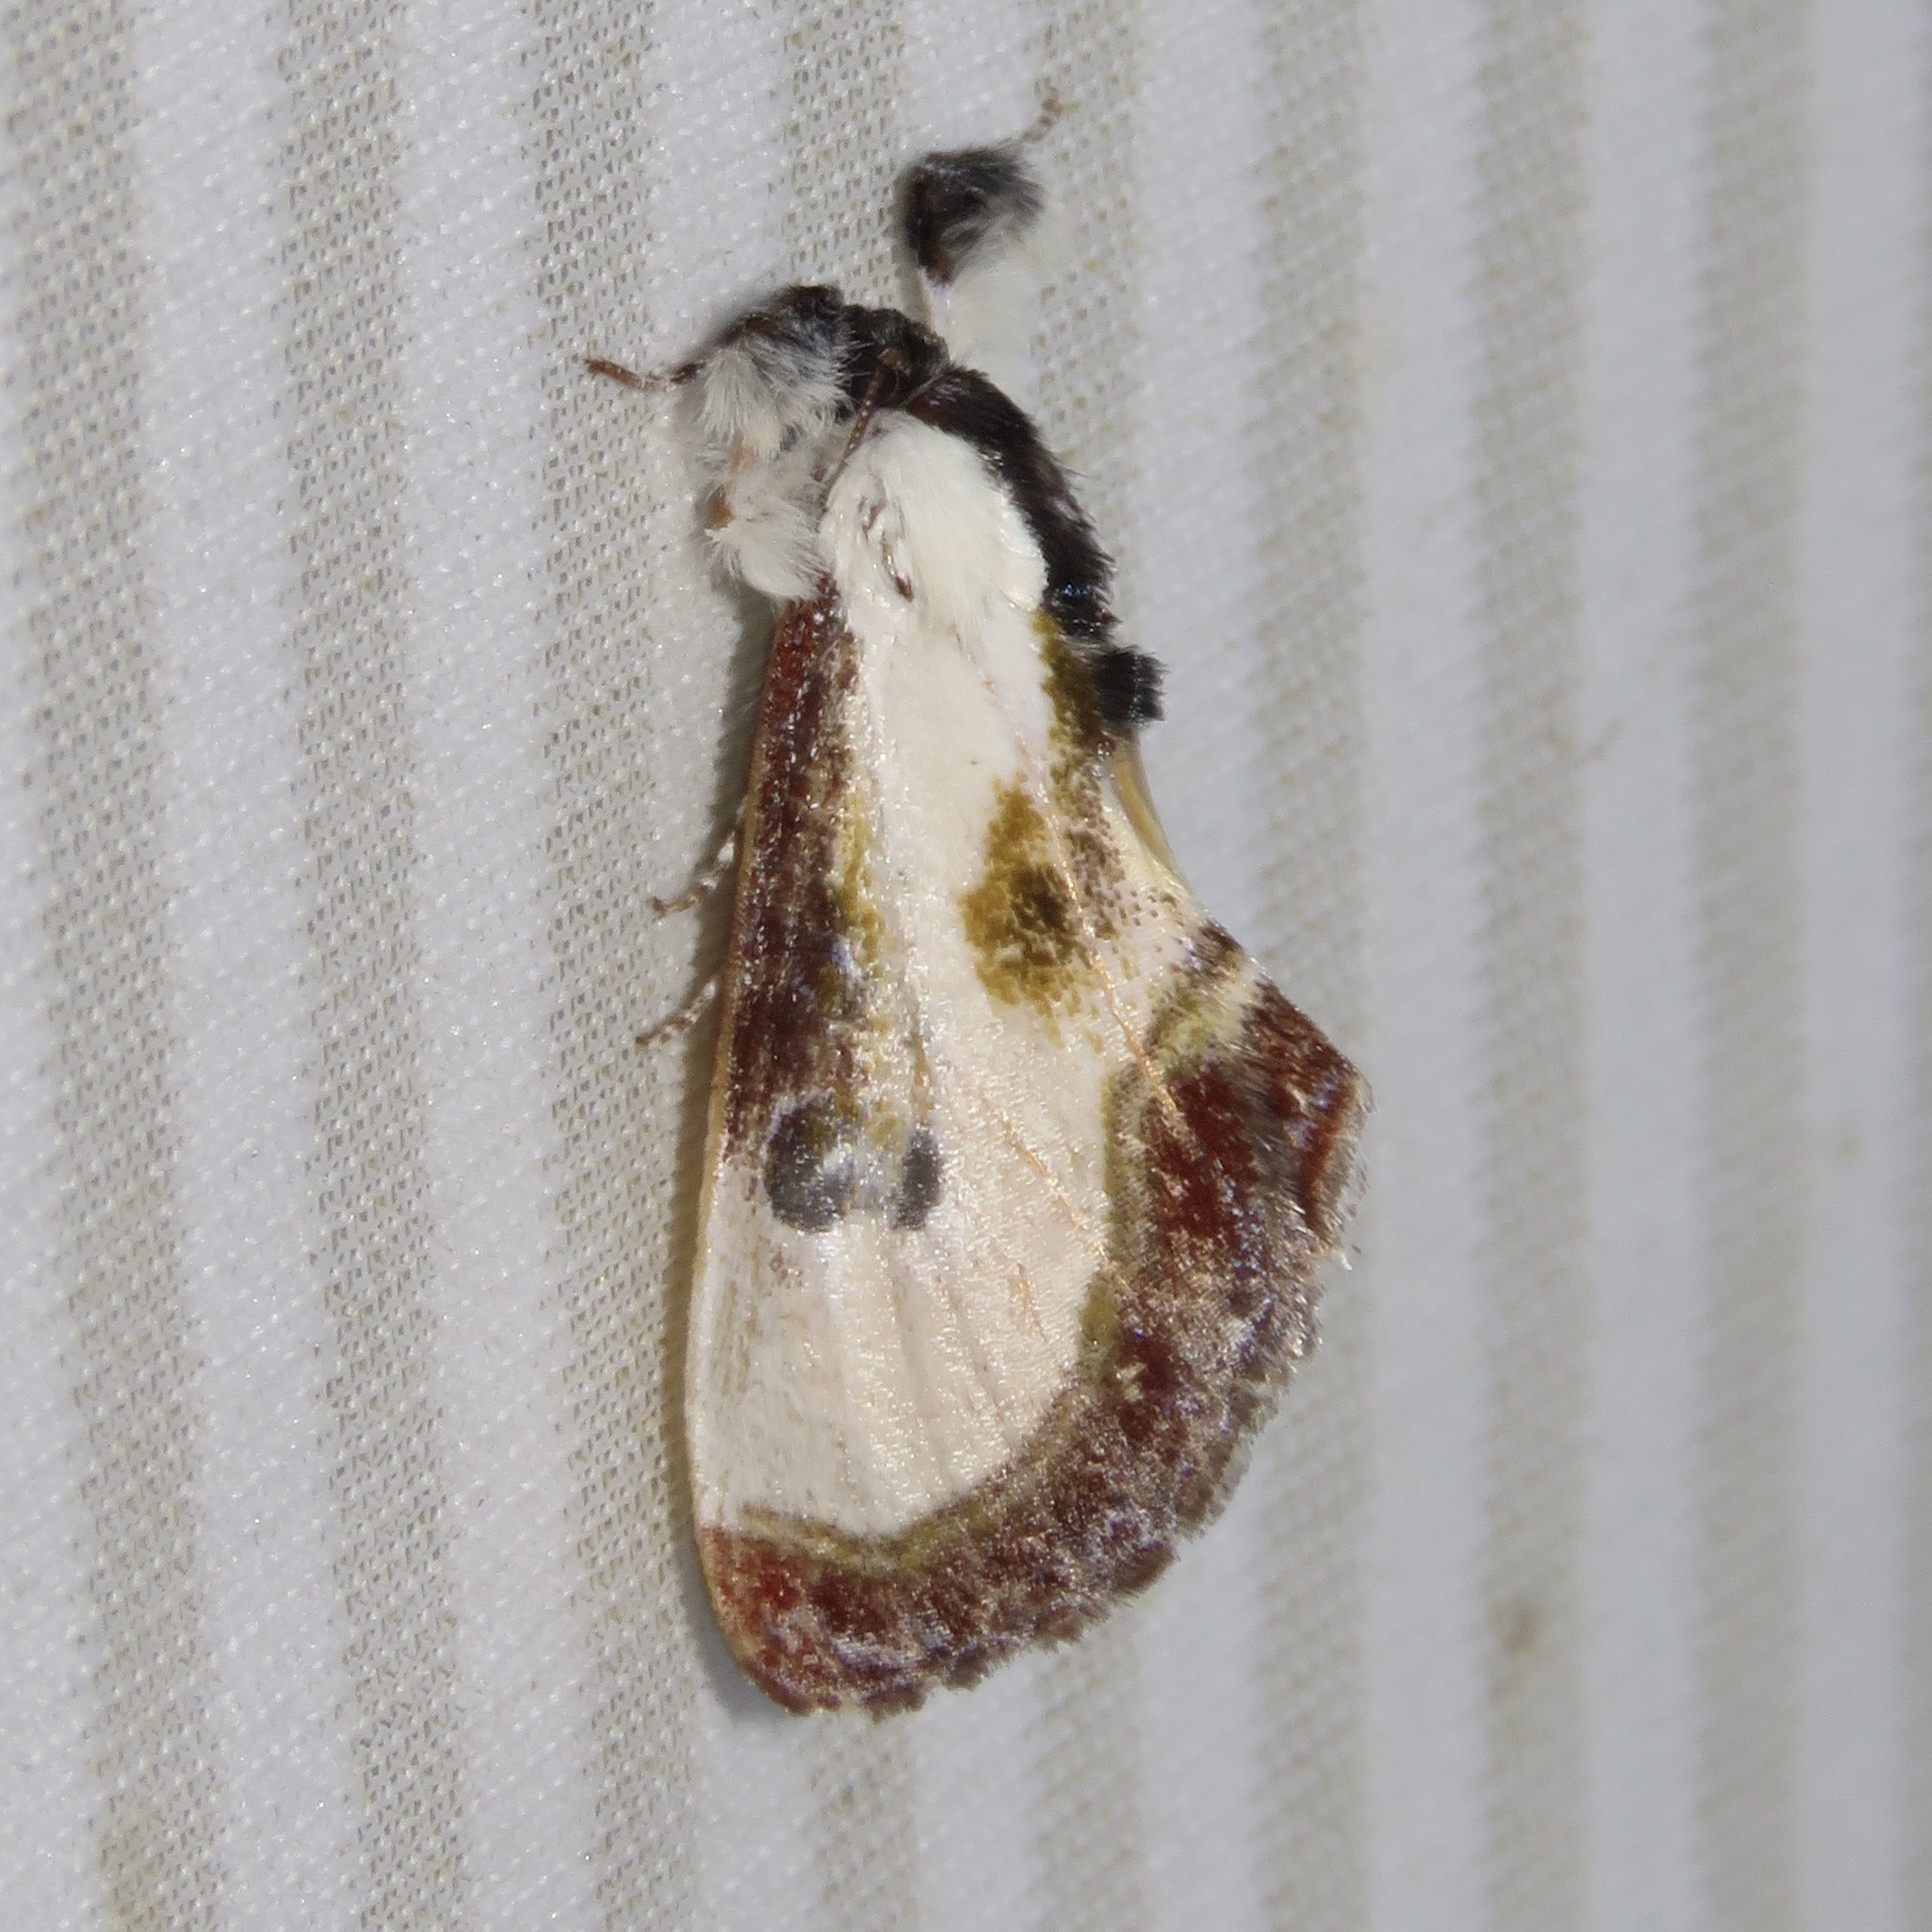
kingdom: Animalia
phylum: Arthropoda
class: Insecta
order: Lepidoptera
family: Noctuidae
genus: Eudryas
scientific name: Eudryas grata
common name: Beautiful wood-nymph
